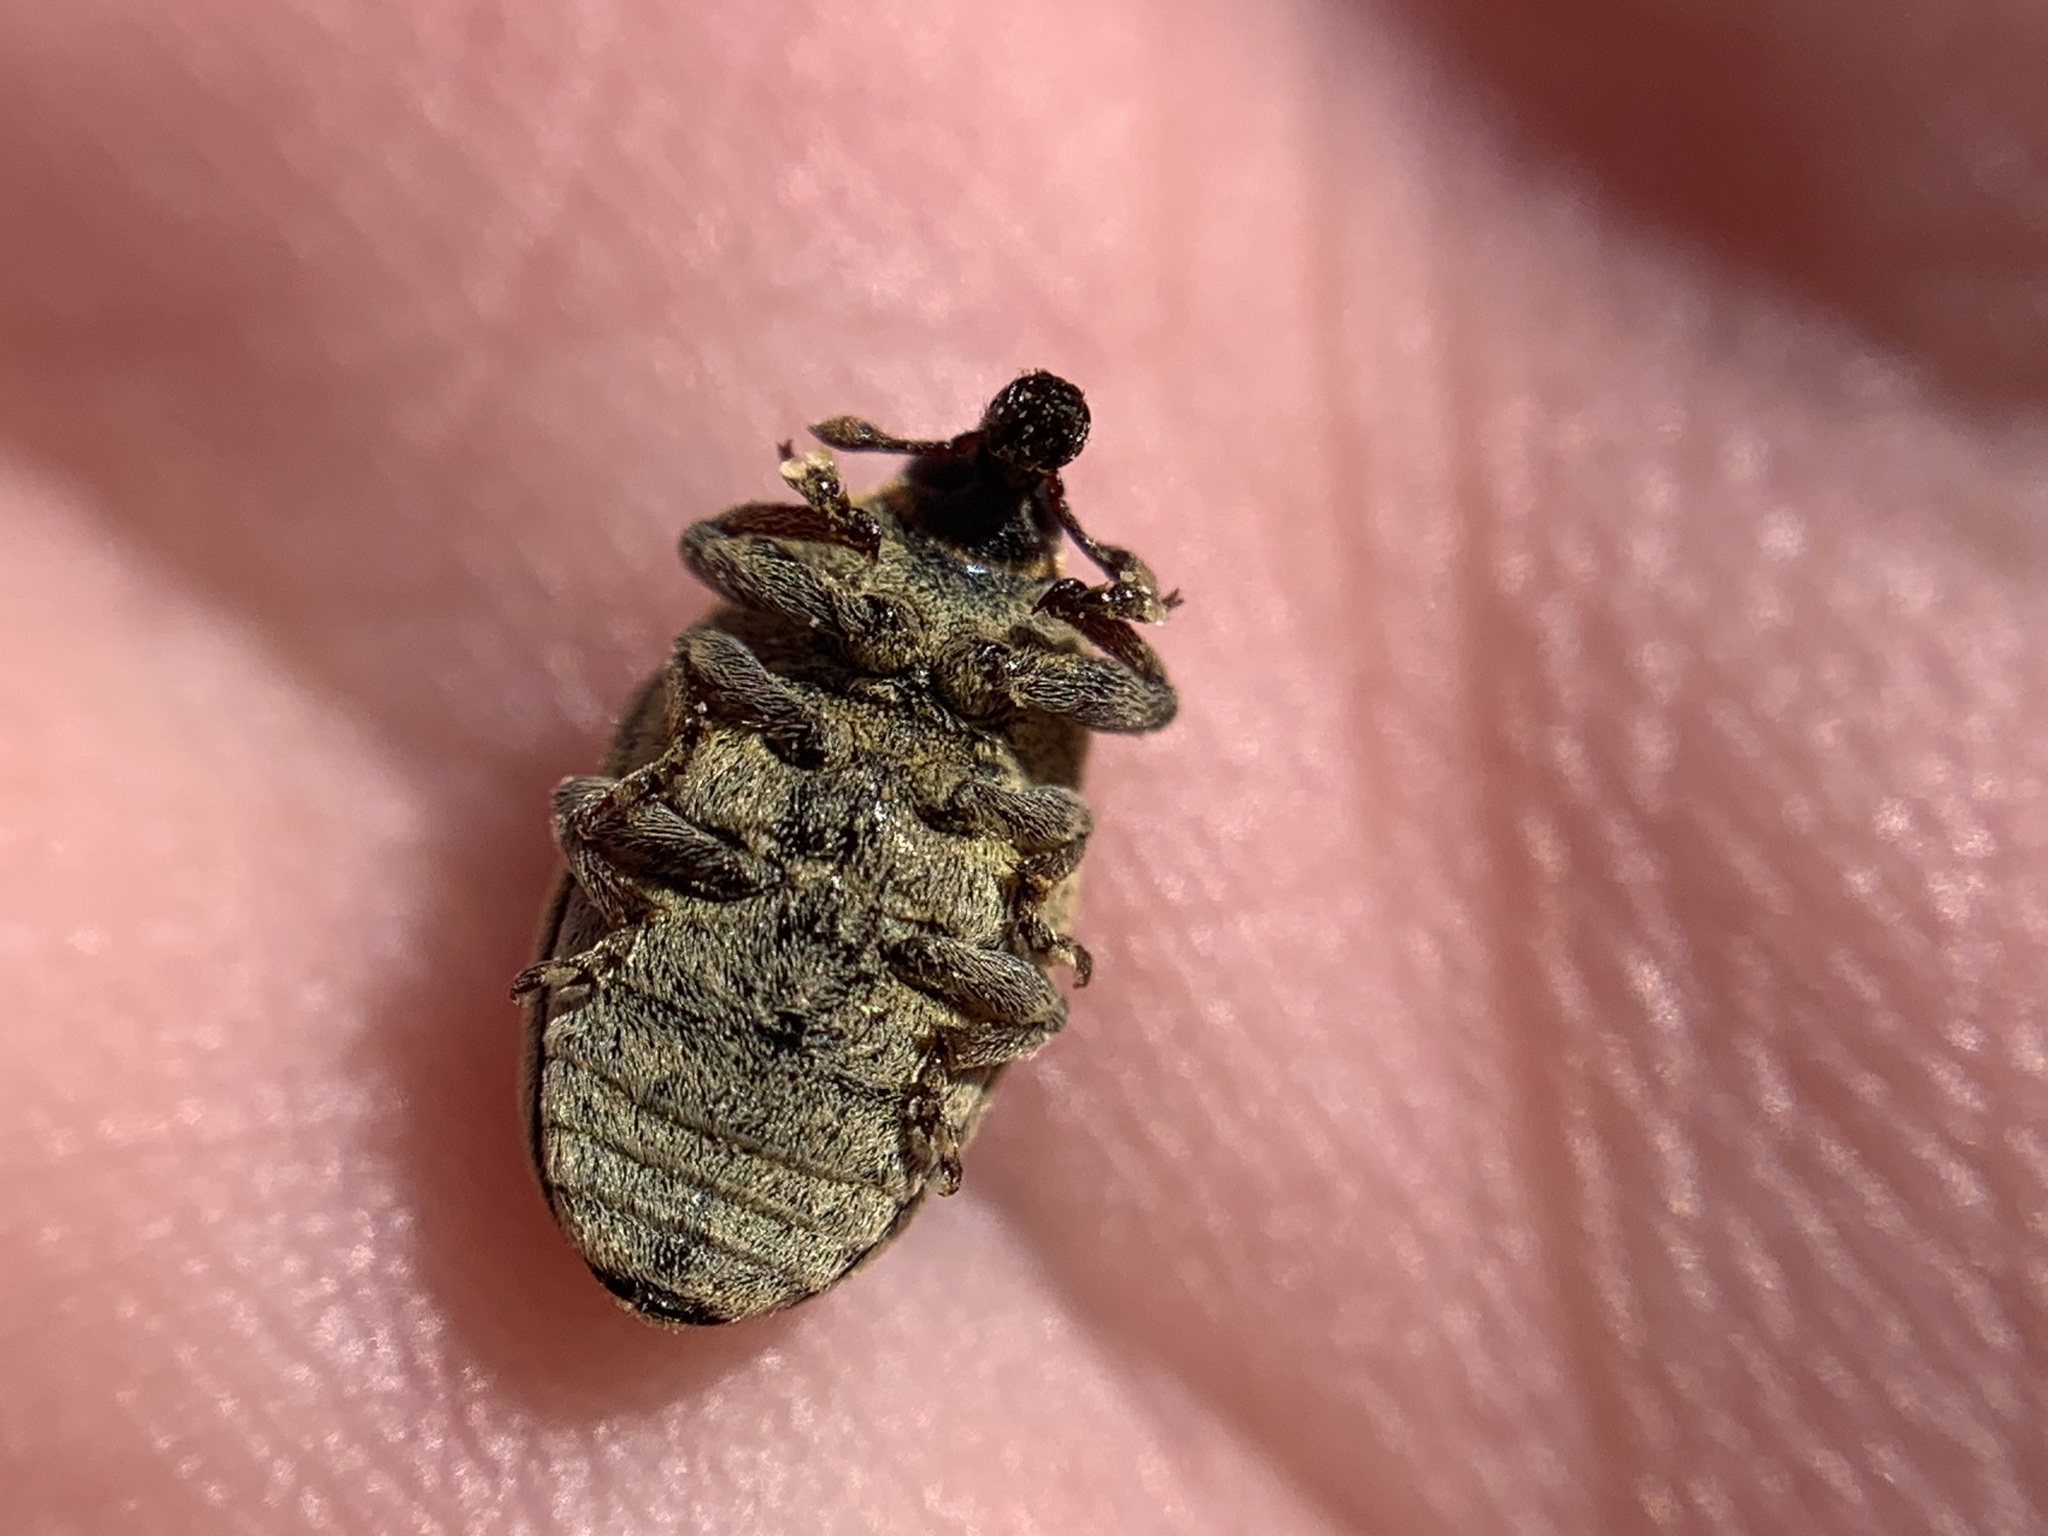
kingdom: Animalia
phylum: Arthropoda
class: Insecta
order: Coleoptera
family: Curculionidae
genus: Larinus
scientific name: Larinus curtus
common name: Weevil
